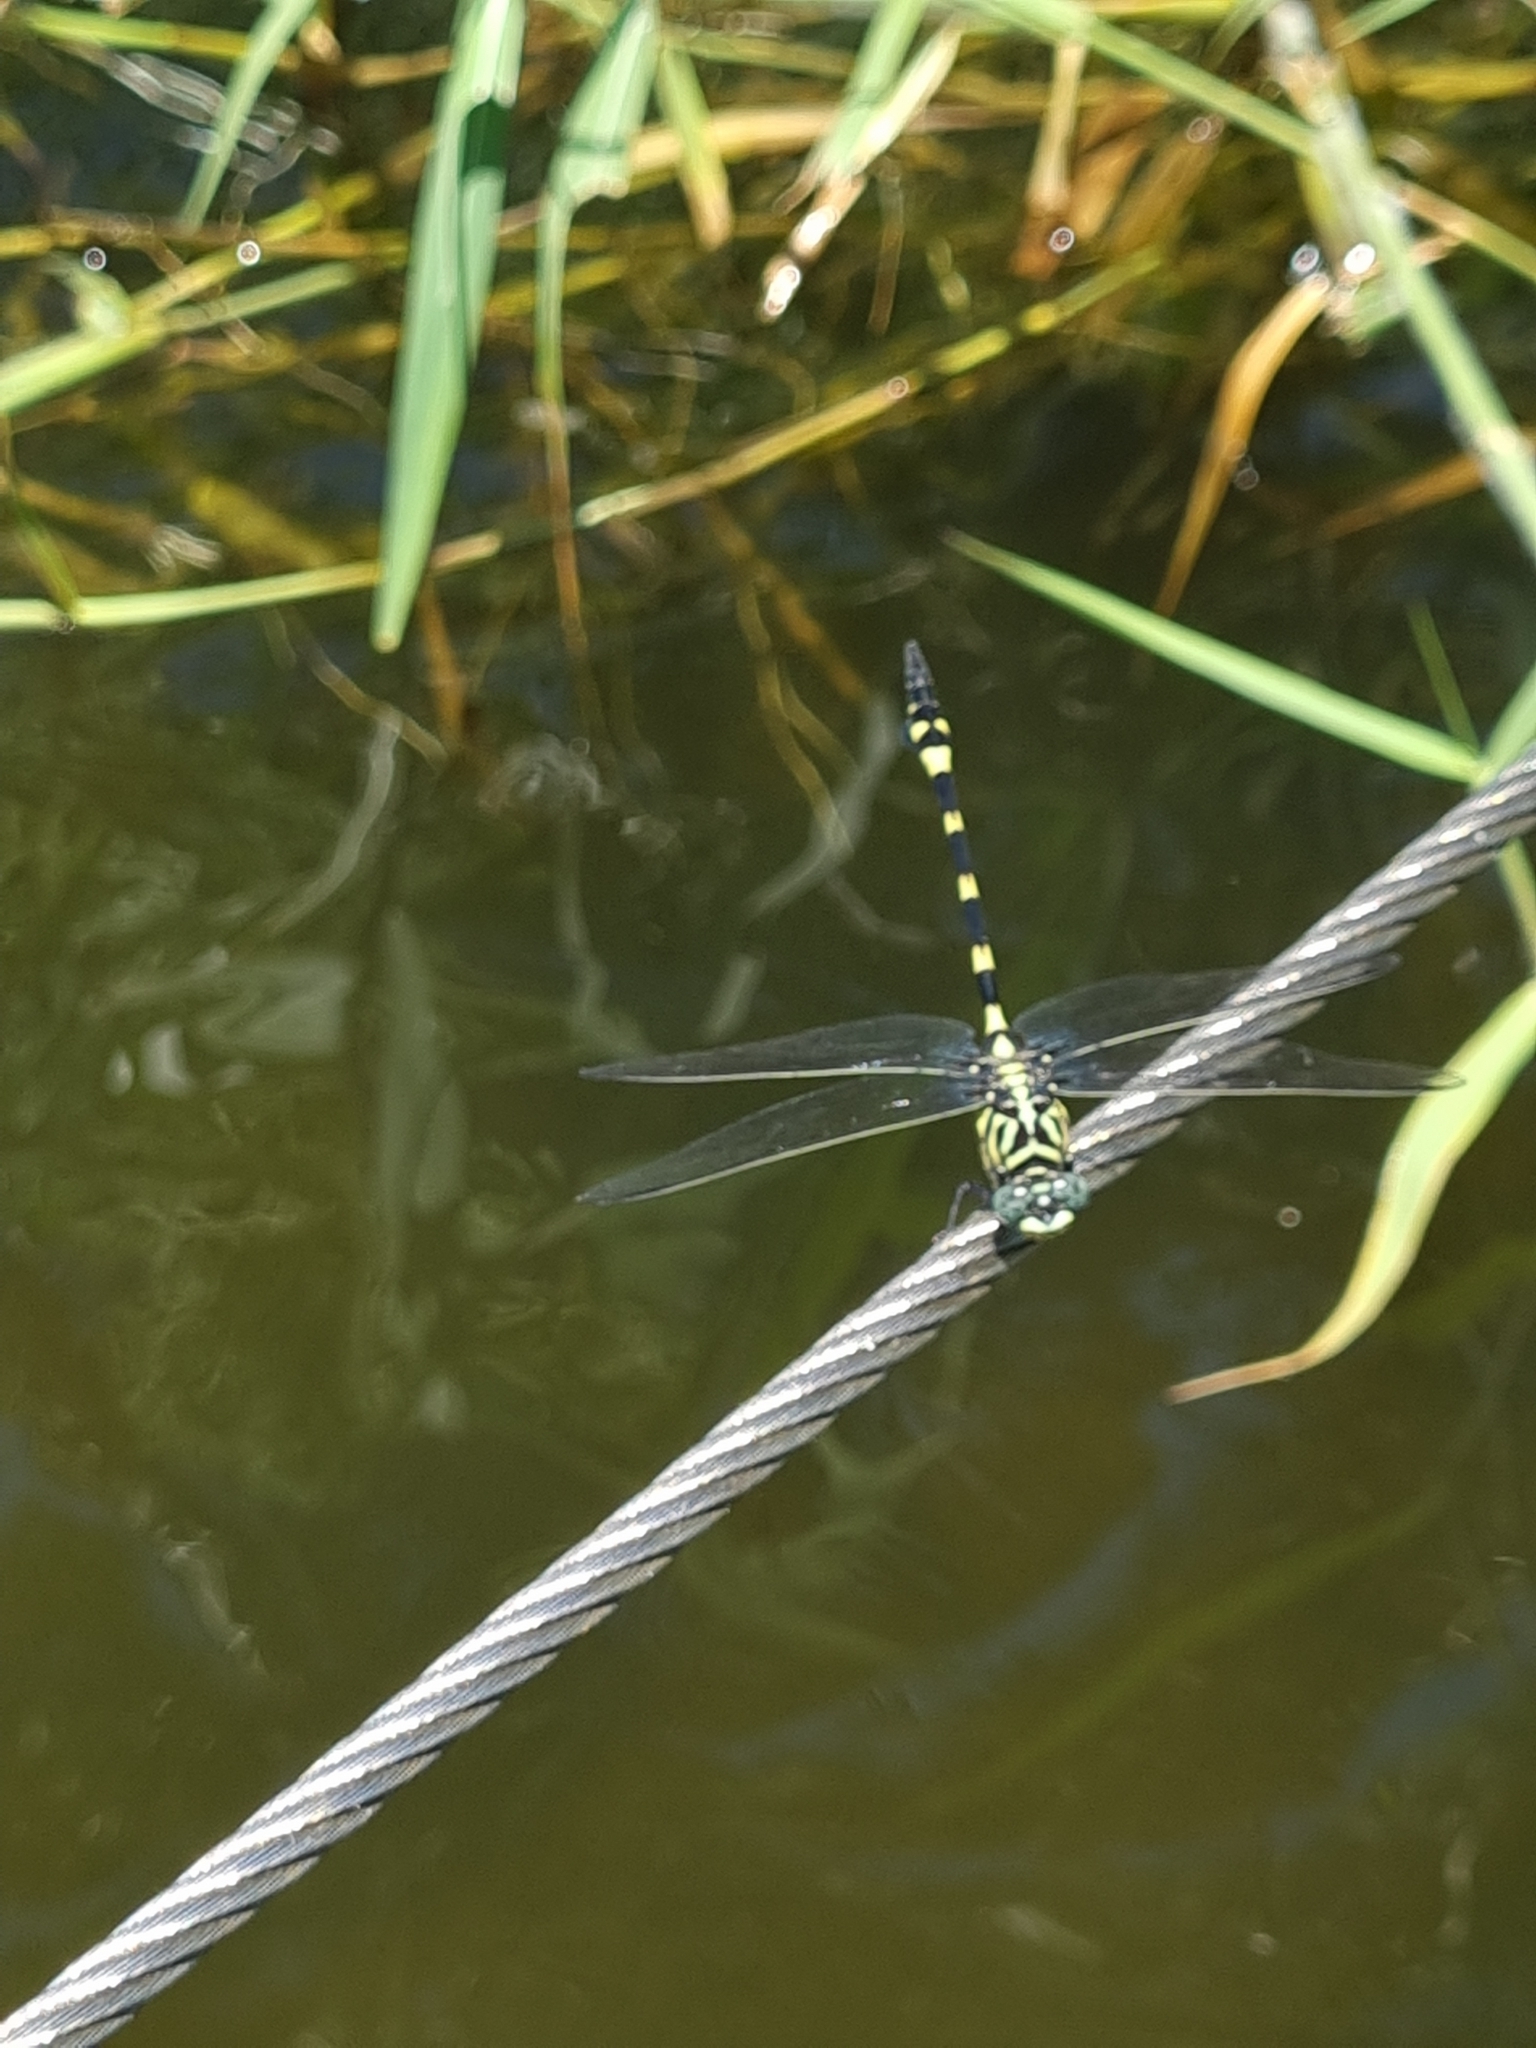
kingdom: Animalia
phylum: Arthropoda
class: Insecta
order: Odonata
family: Gomphidae
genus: Ictinogomphus
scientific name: Ictinogomphus australis
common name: Australian tiger
